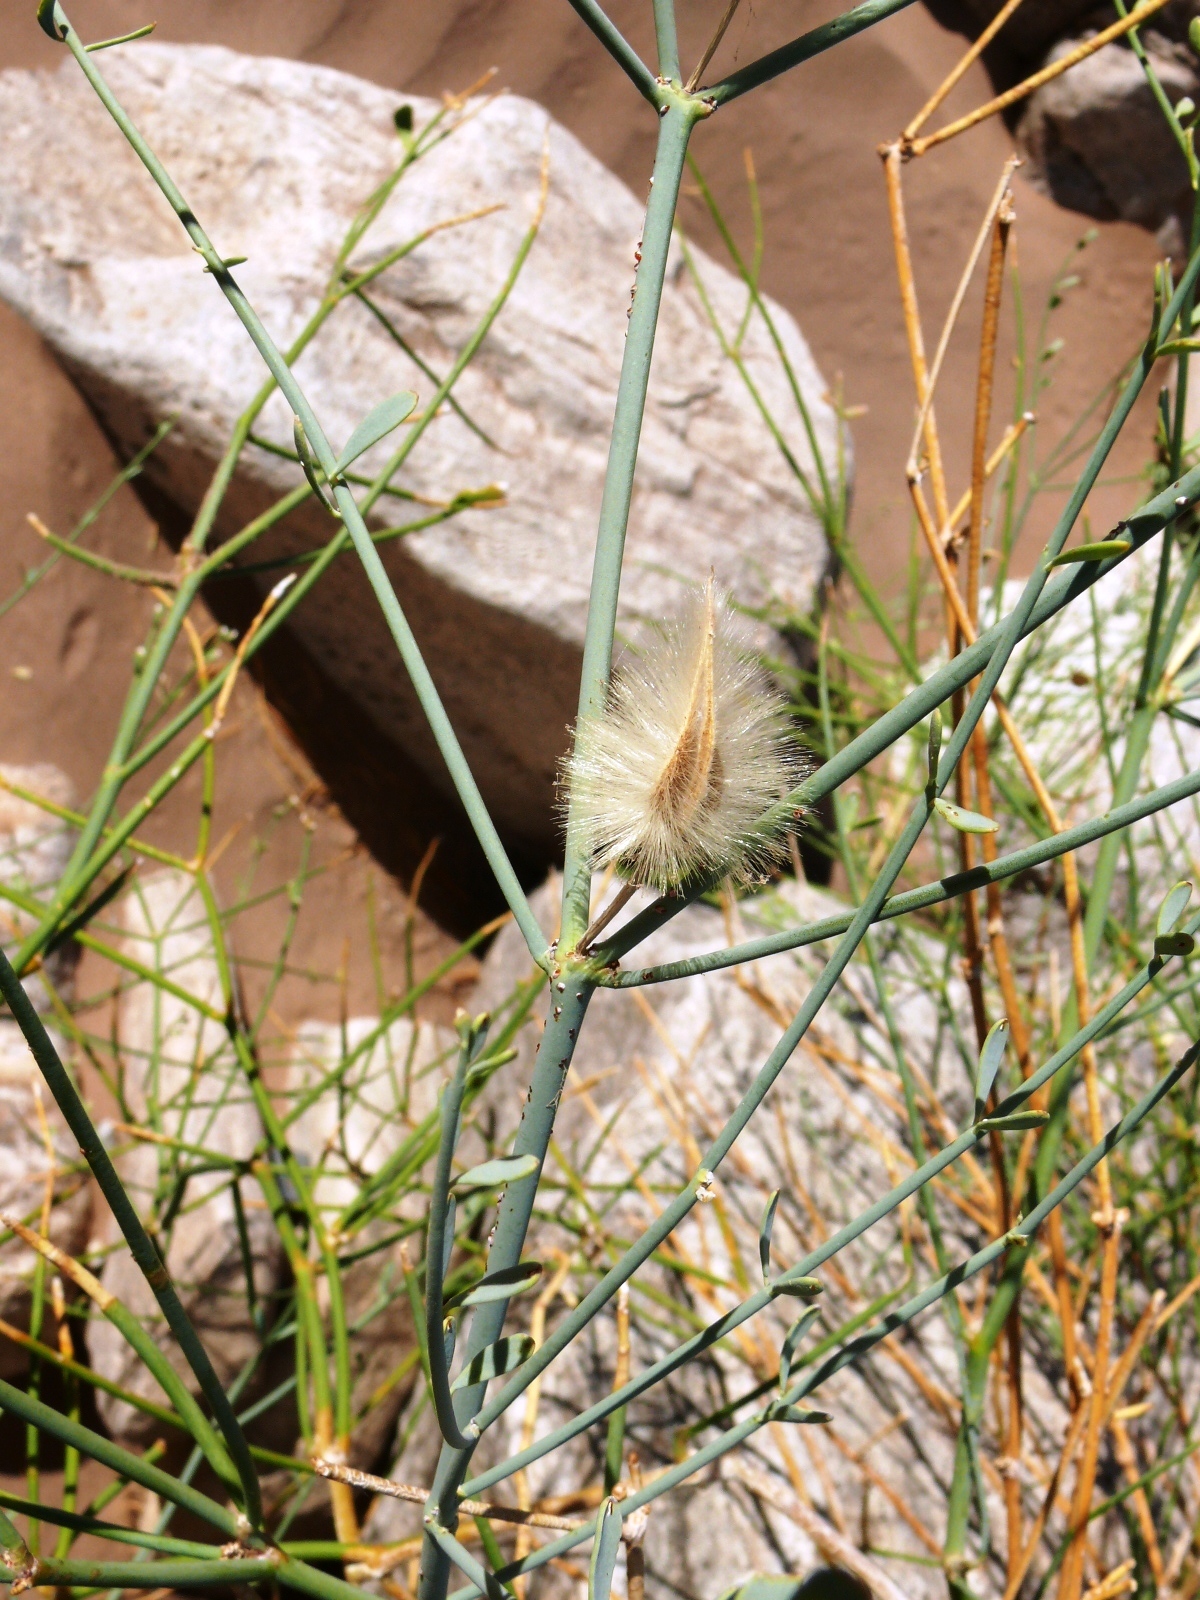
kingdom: Plantae
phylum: Tracheophyta
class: Magnoliopsida
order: Zygophyllales
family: Zygophyllaceae
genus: Sisyndite
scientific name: Sisyndite spartea
